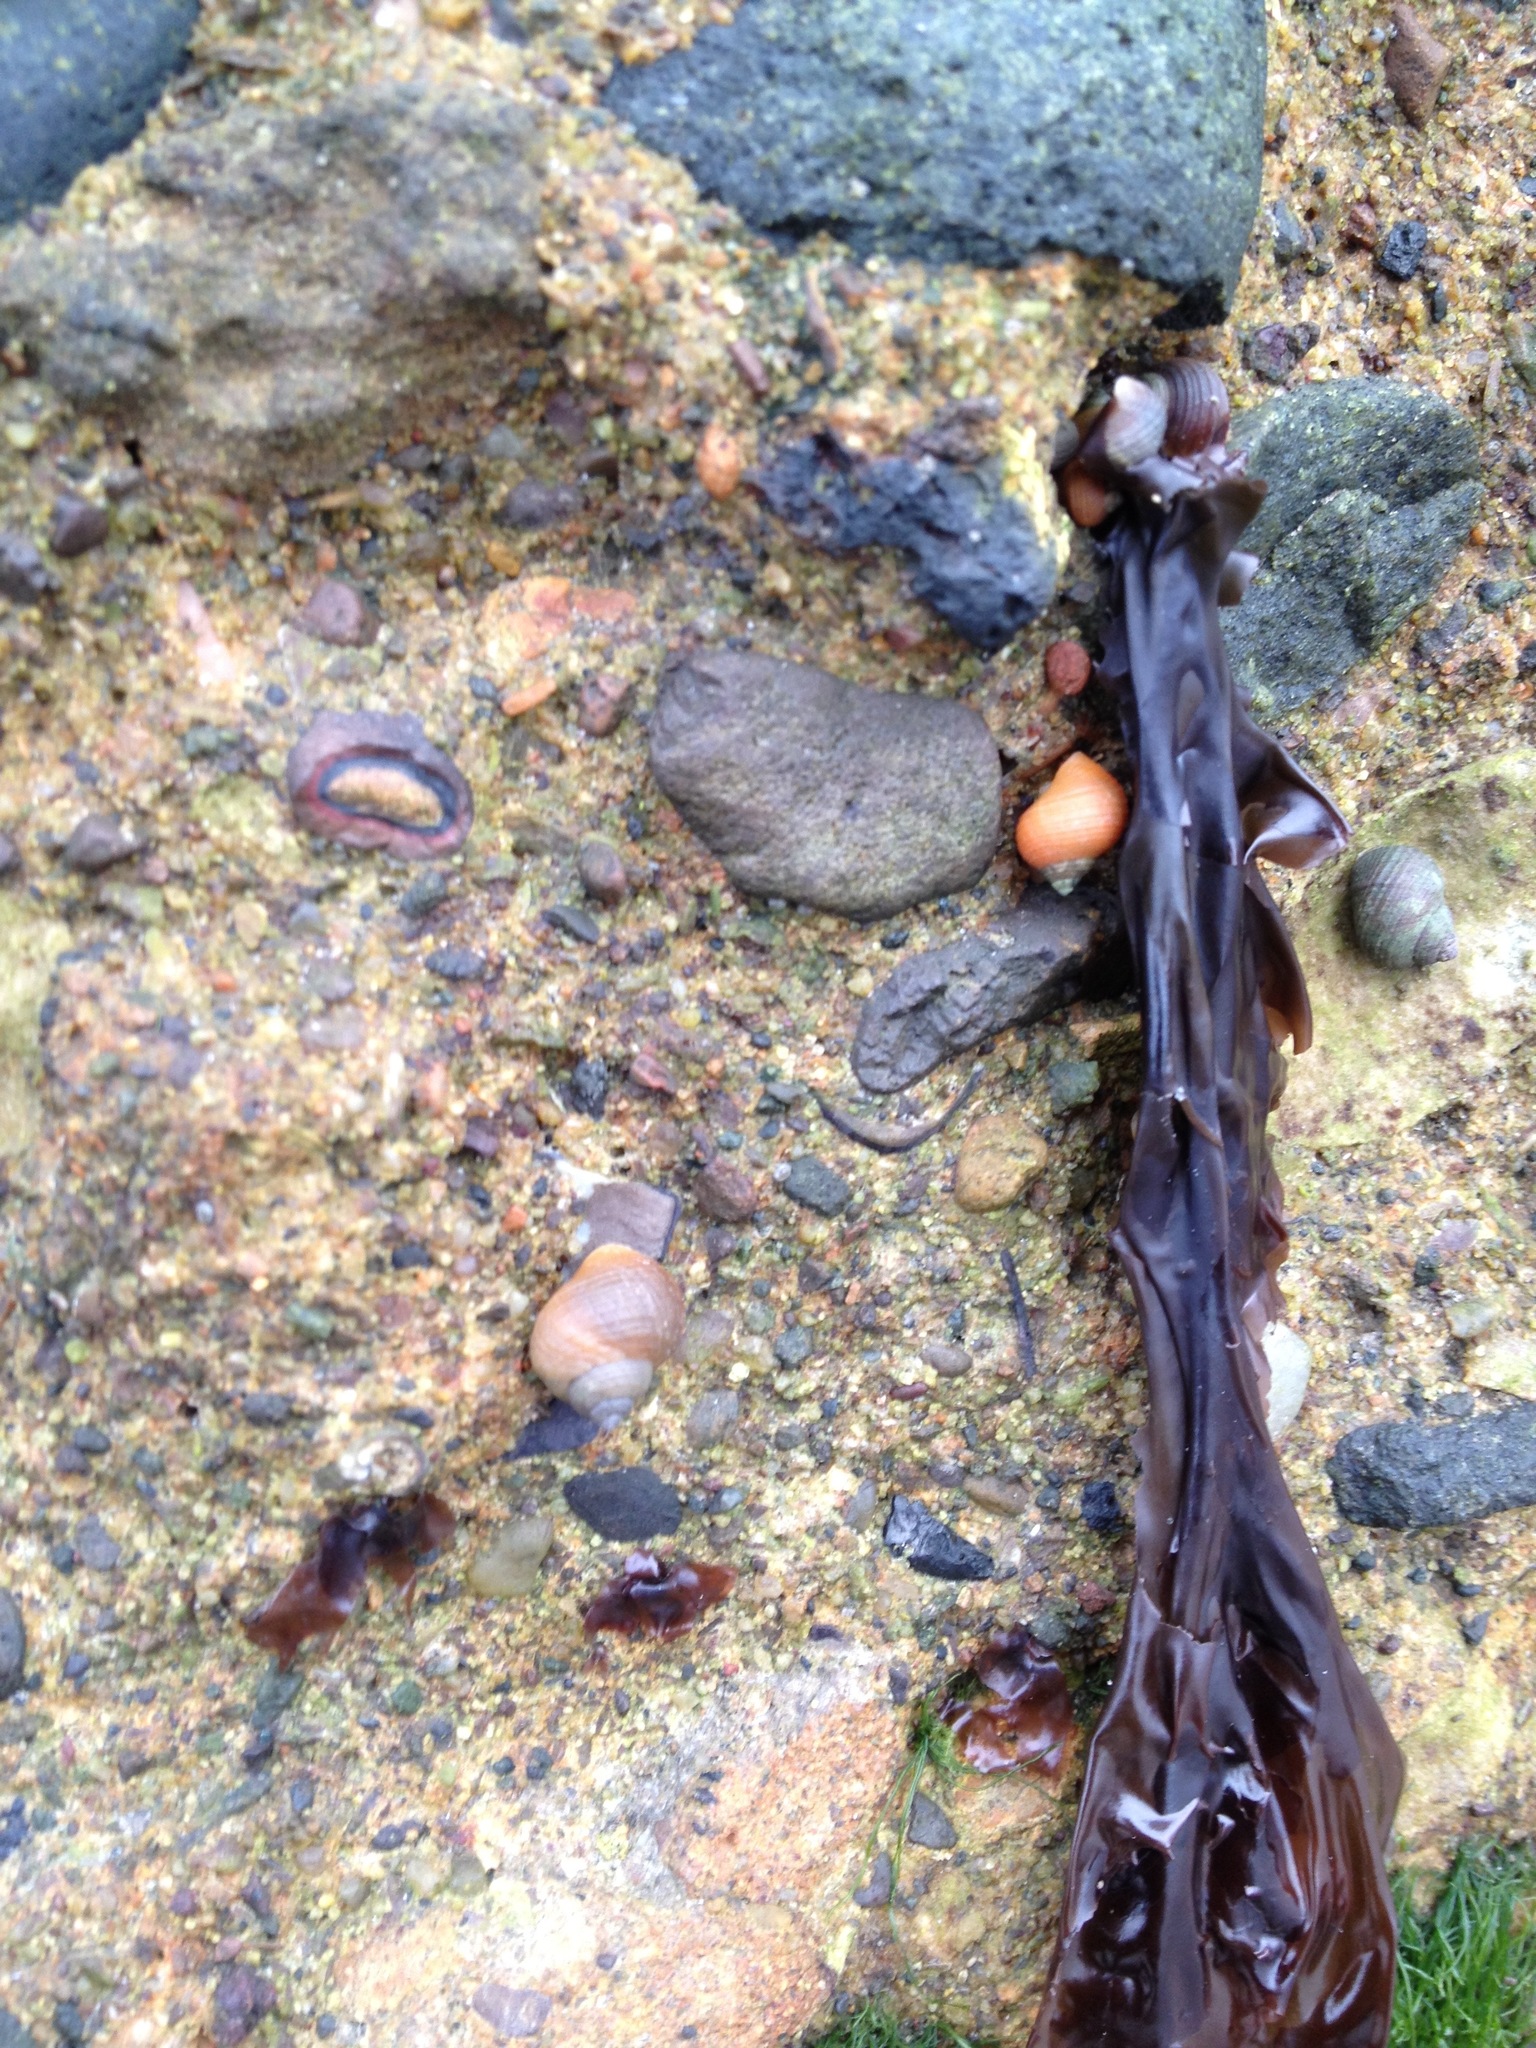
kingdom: Animalia
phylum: Mollusca
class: Gastropoda
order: Littorinimorpha
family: Littorinidae
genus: Littorina
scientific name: Littorina saxatilis
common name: Black-lined periwinkle
